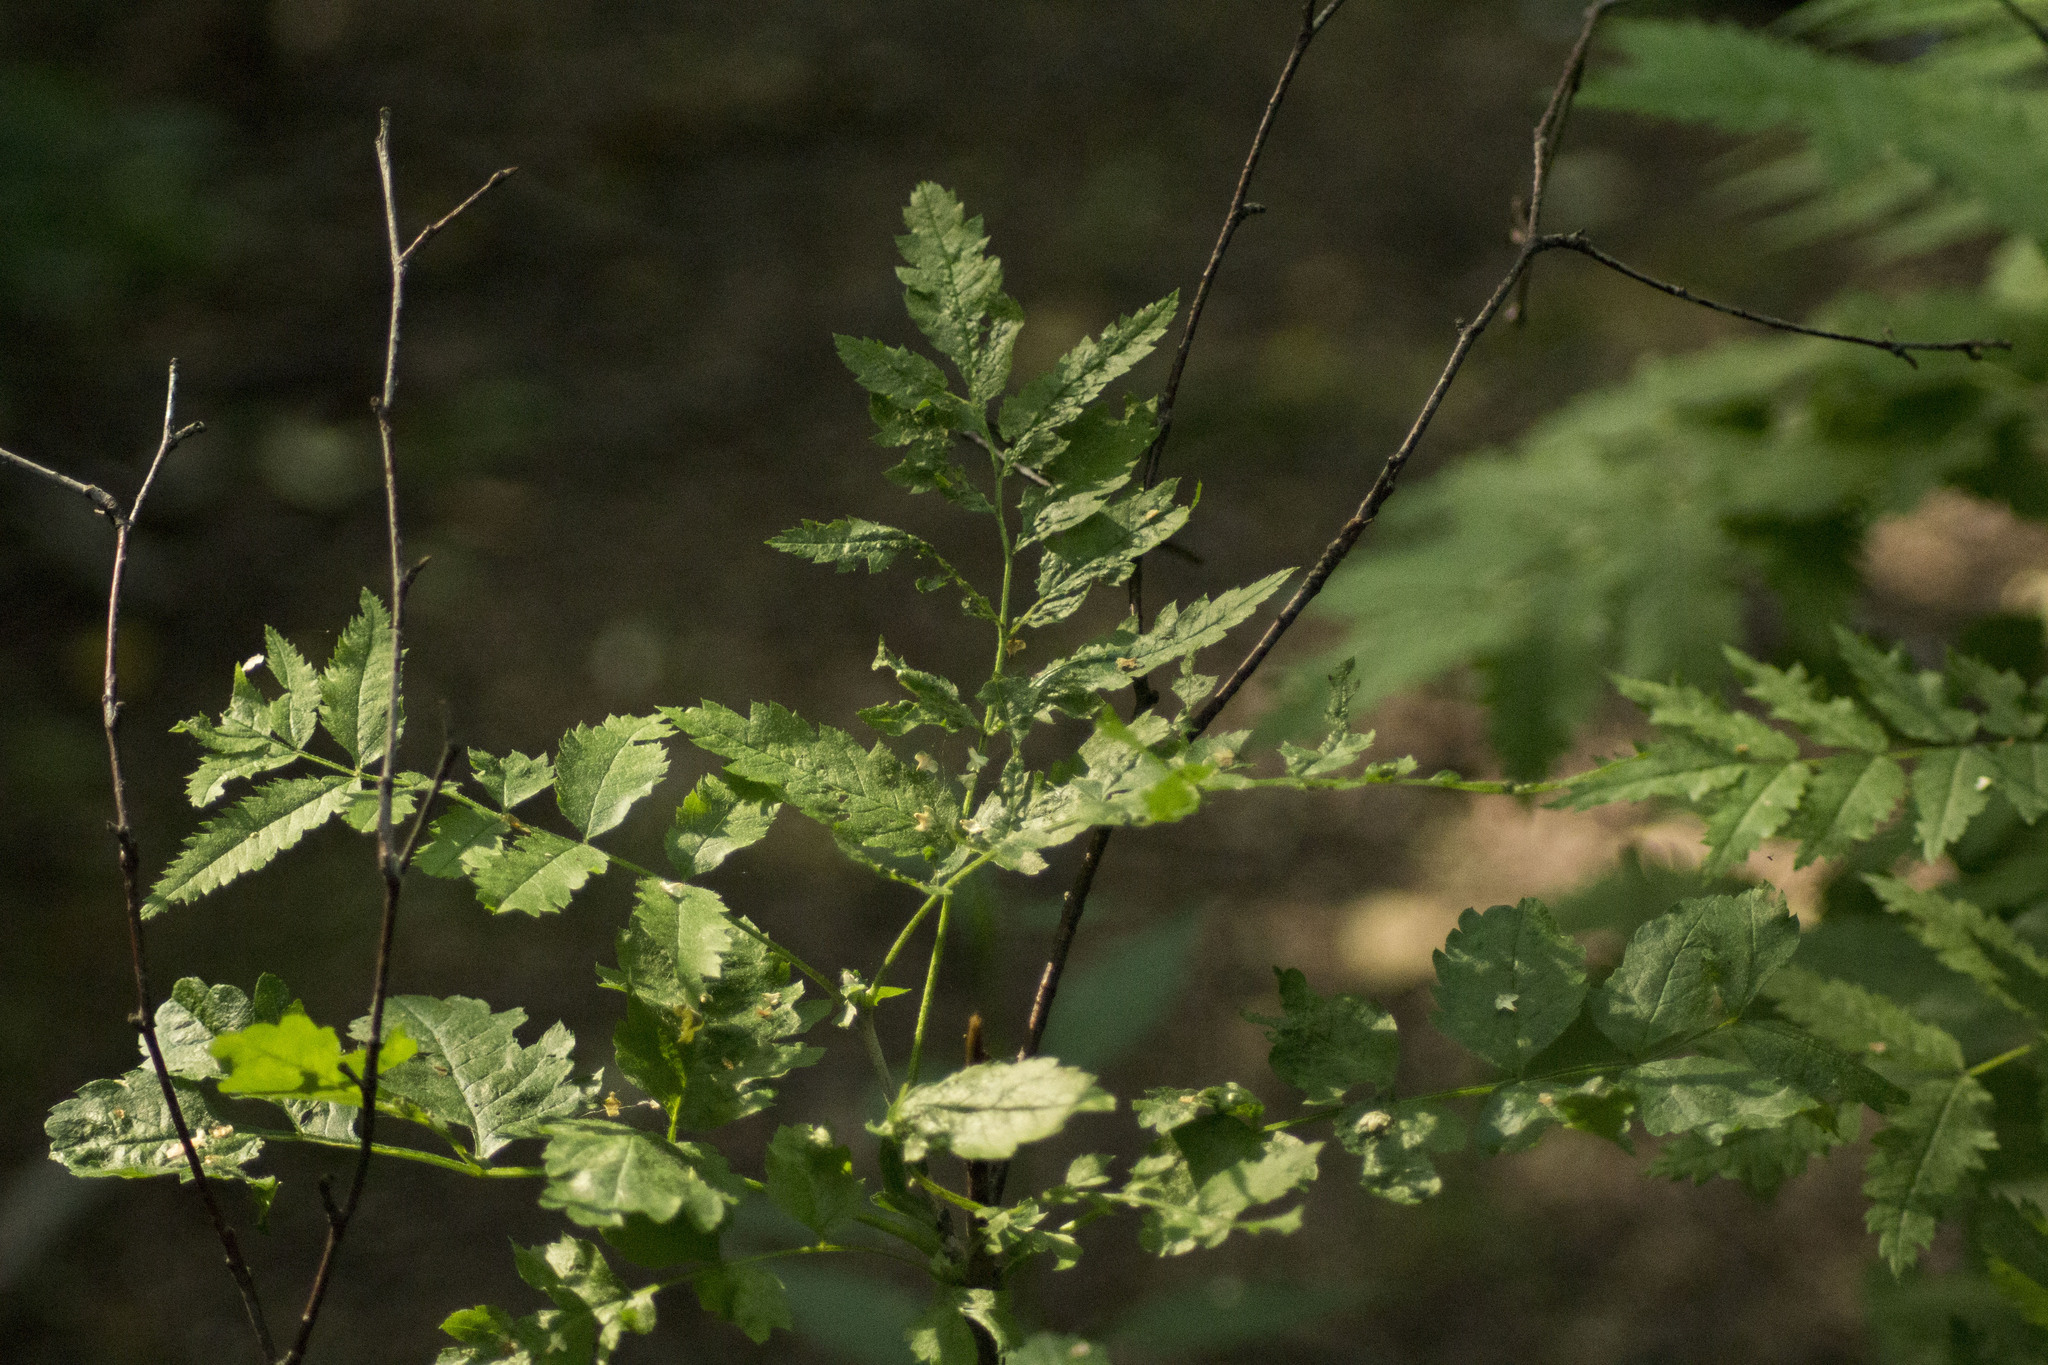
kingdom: Plantae
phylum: Tracheophyta
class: Magnoliopsida
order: Rosales
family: Rosaceae
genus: Sorbus
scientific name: Sorbus aucuparia
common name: Rowan
